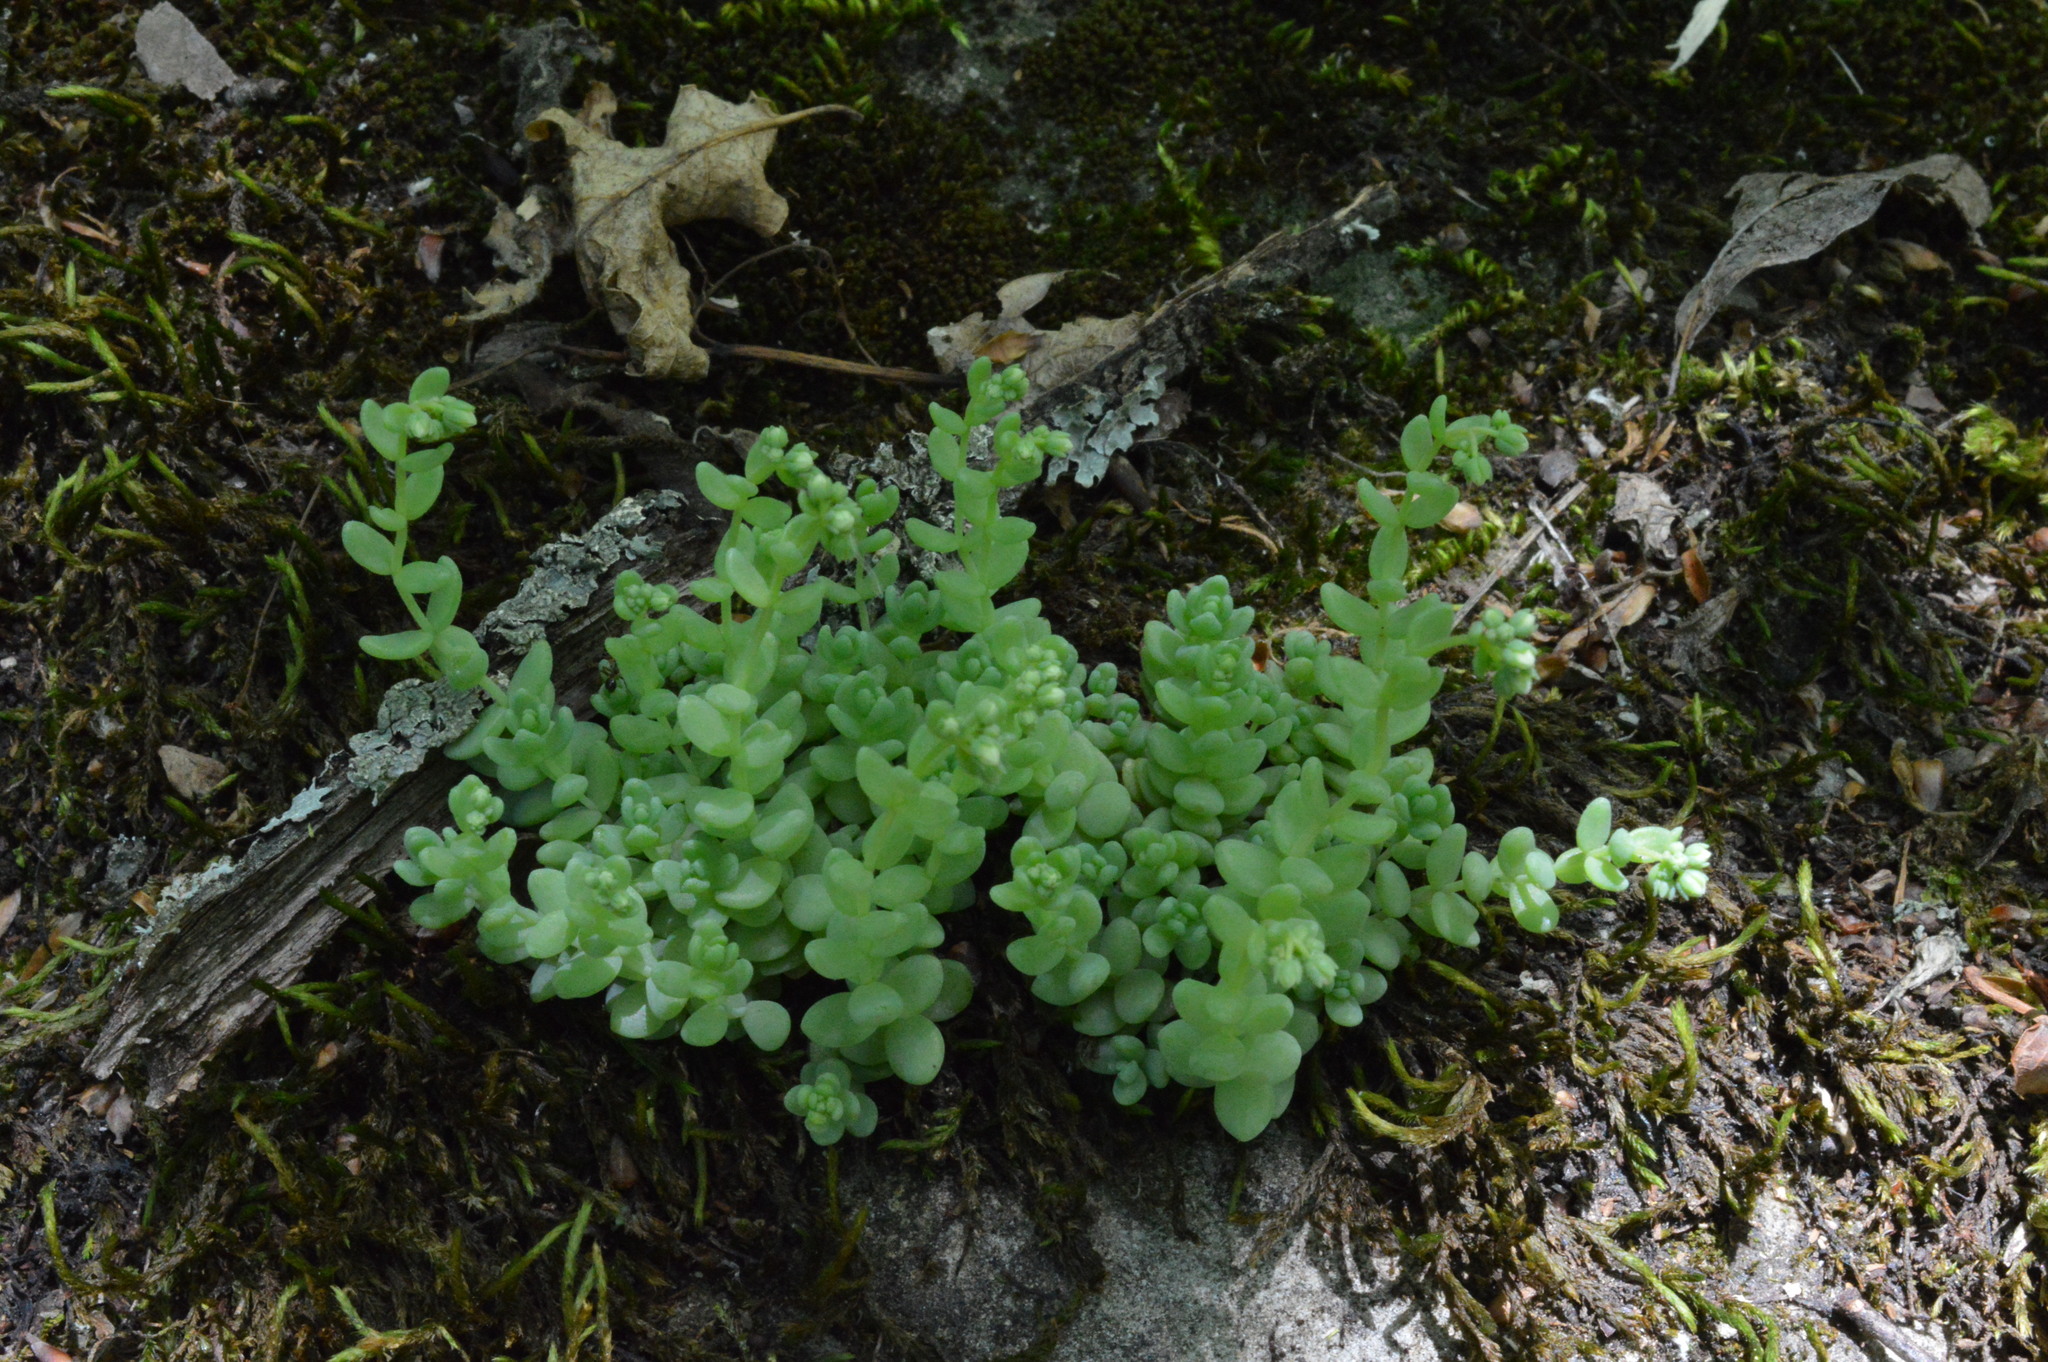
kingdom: Plantae
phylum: Tracheophyta
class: Magnoliopsida
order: Saxifragales
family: Crassulaceae
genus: Sedum
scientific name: Sedum dasyphyllum
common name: Thick-leaf stonecrop
